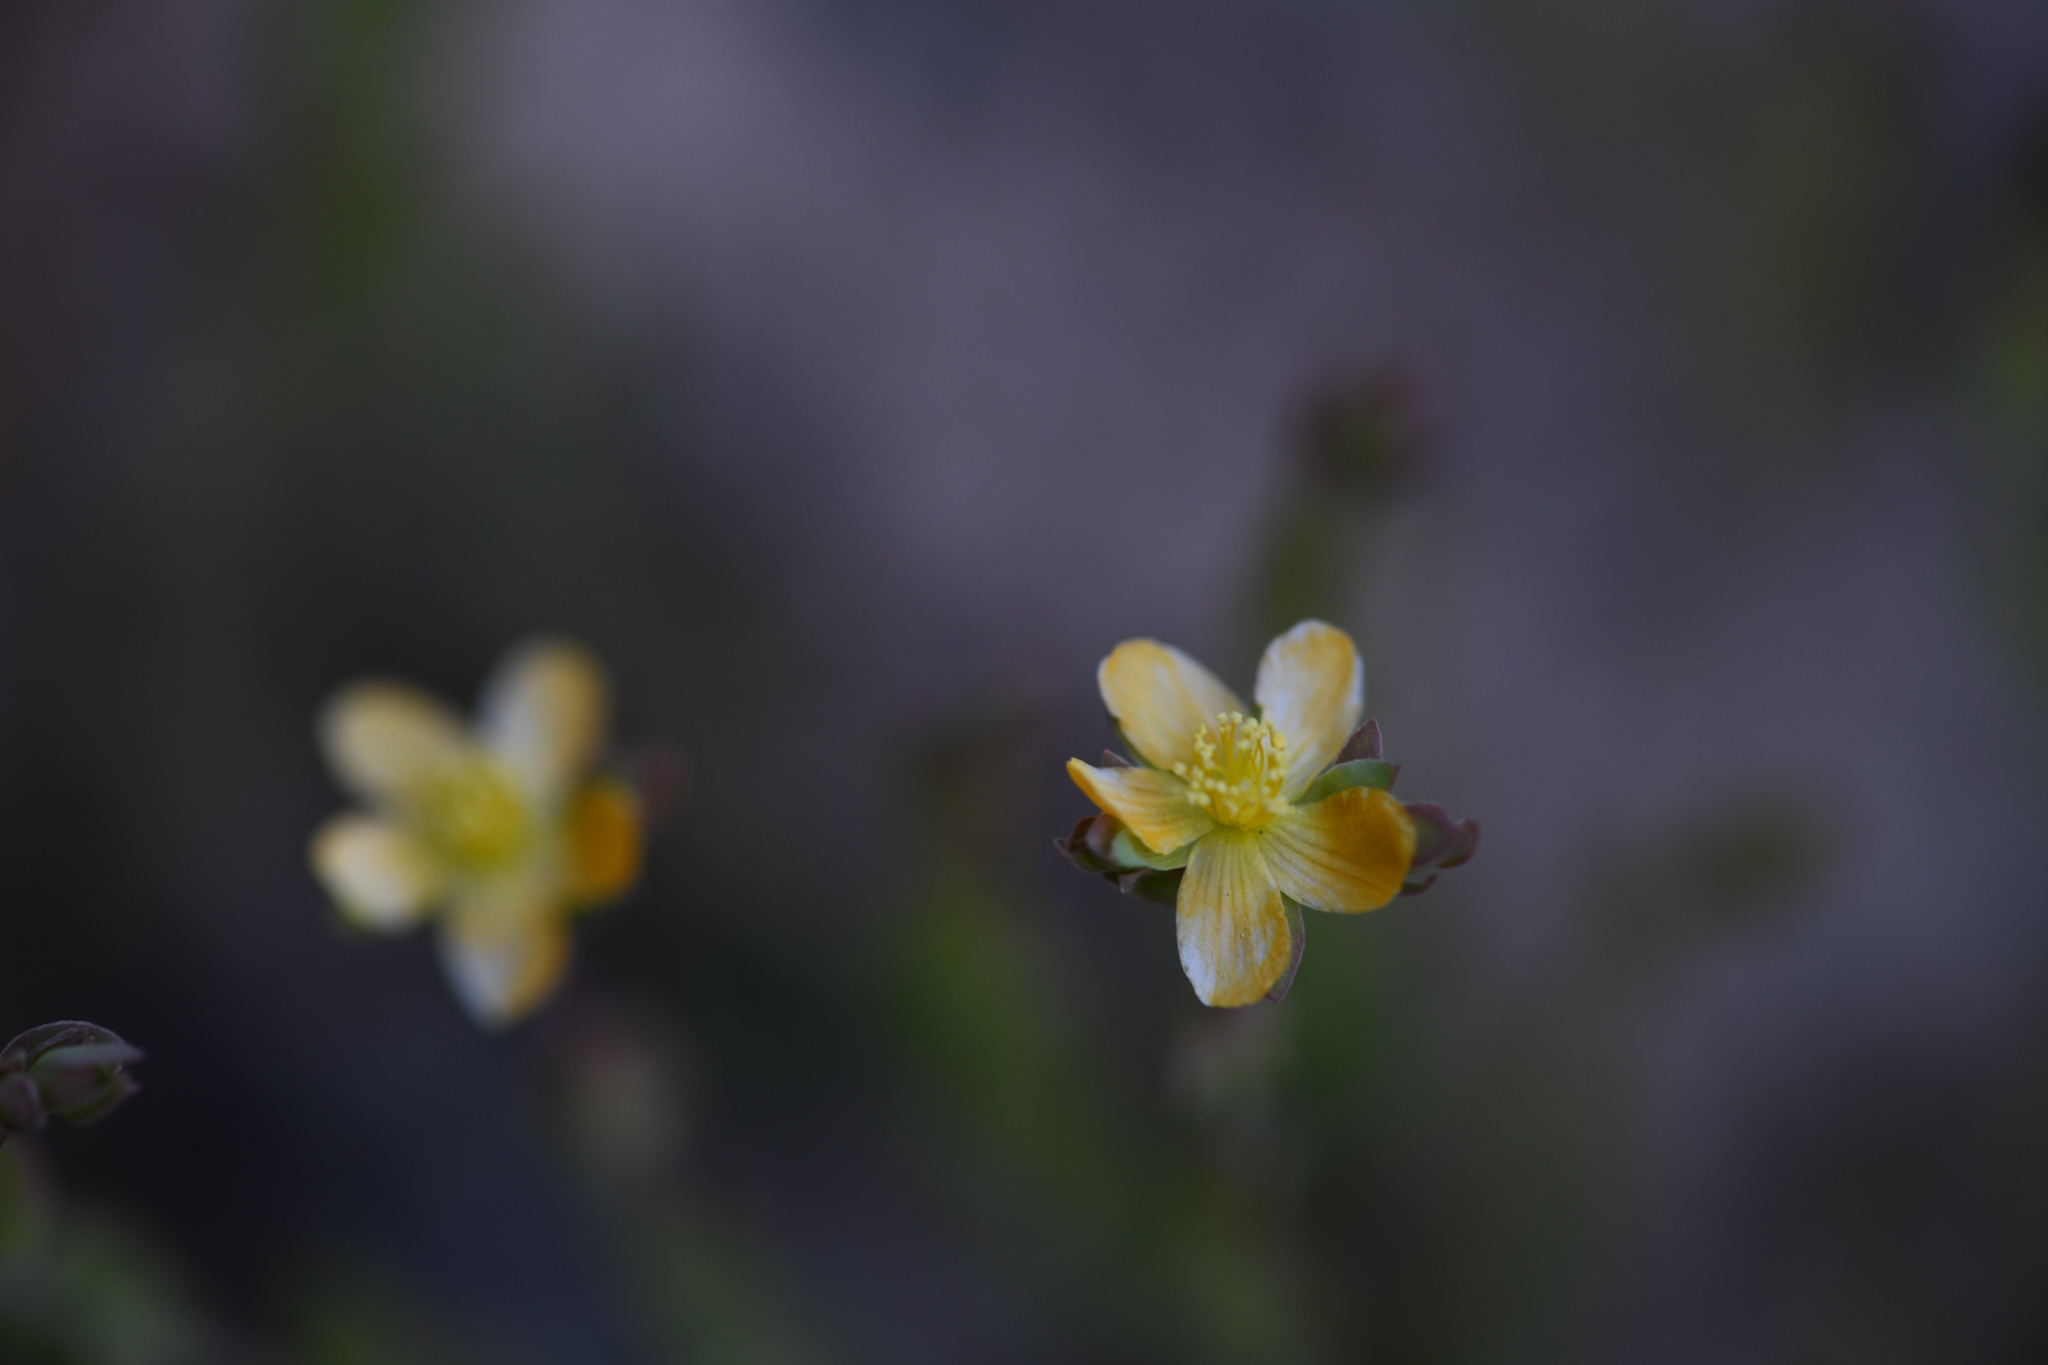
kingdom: Plantae
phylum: Tracheophyta
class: Magnoliopsida
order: Malpighiales
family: Hypericaceae
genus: Hypericum
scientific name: Hypericum anagalloides
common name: Bog st. john's-wort
